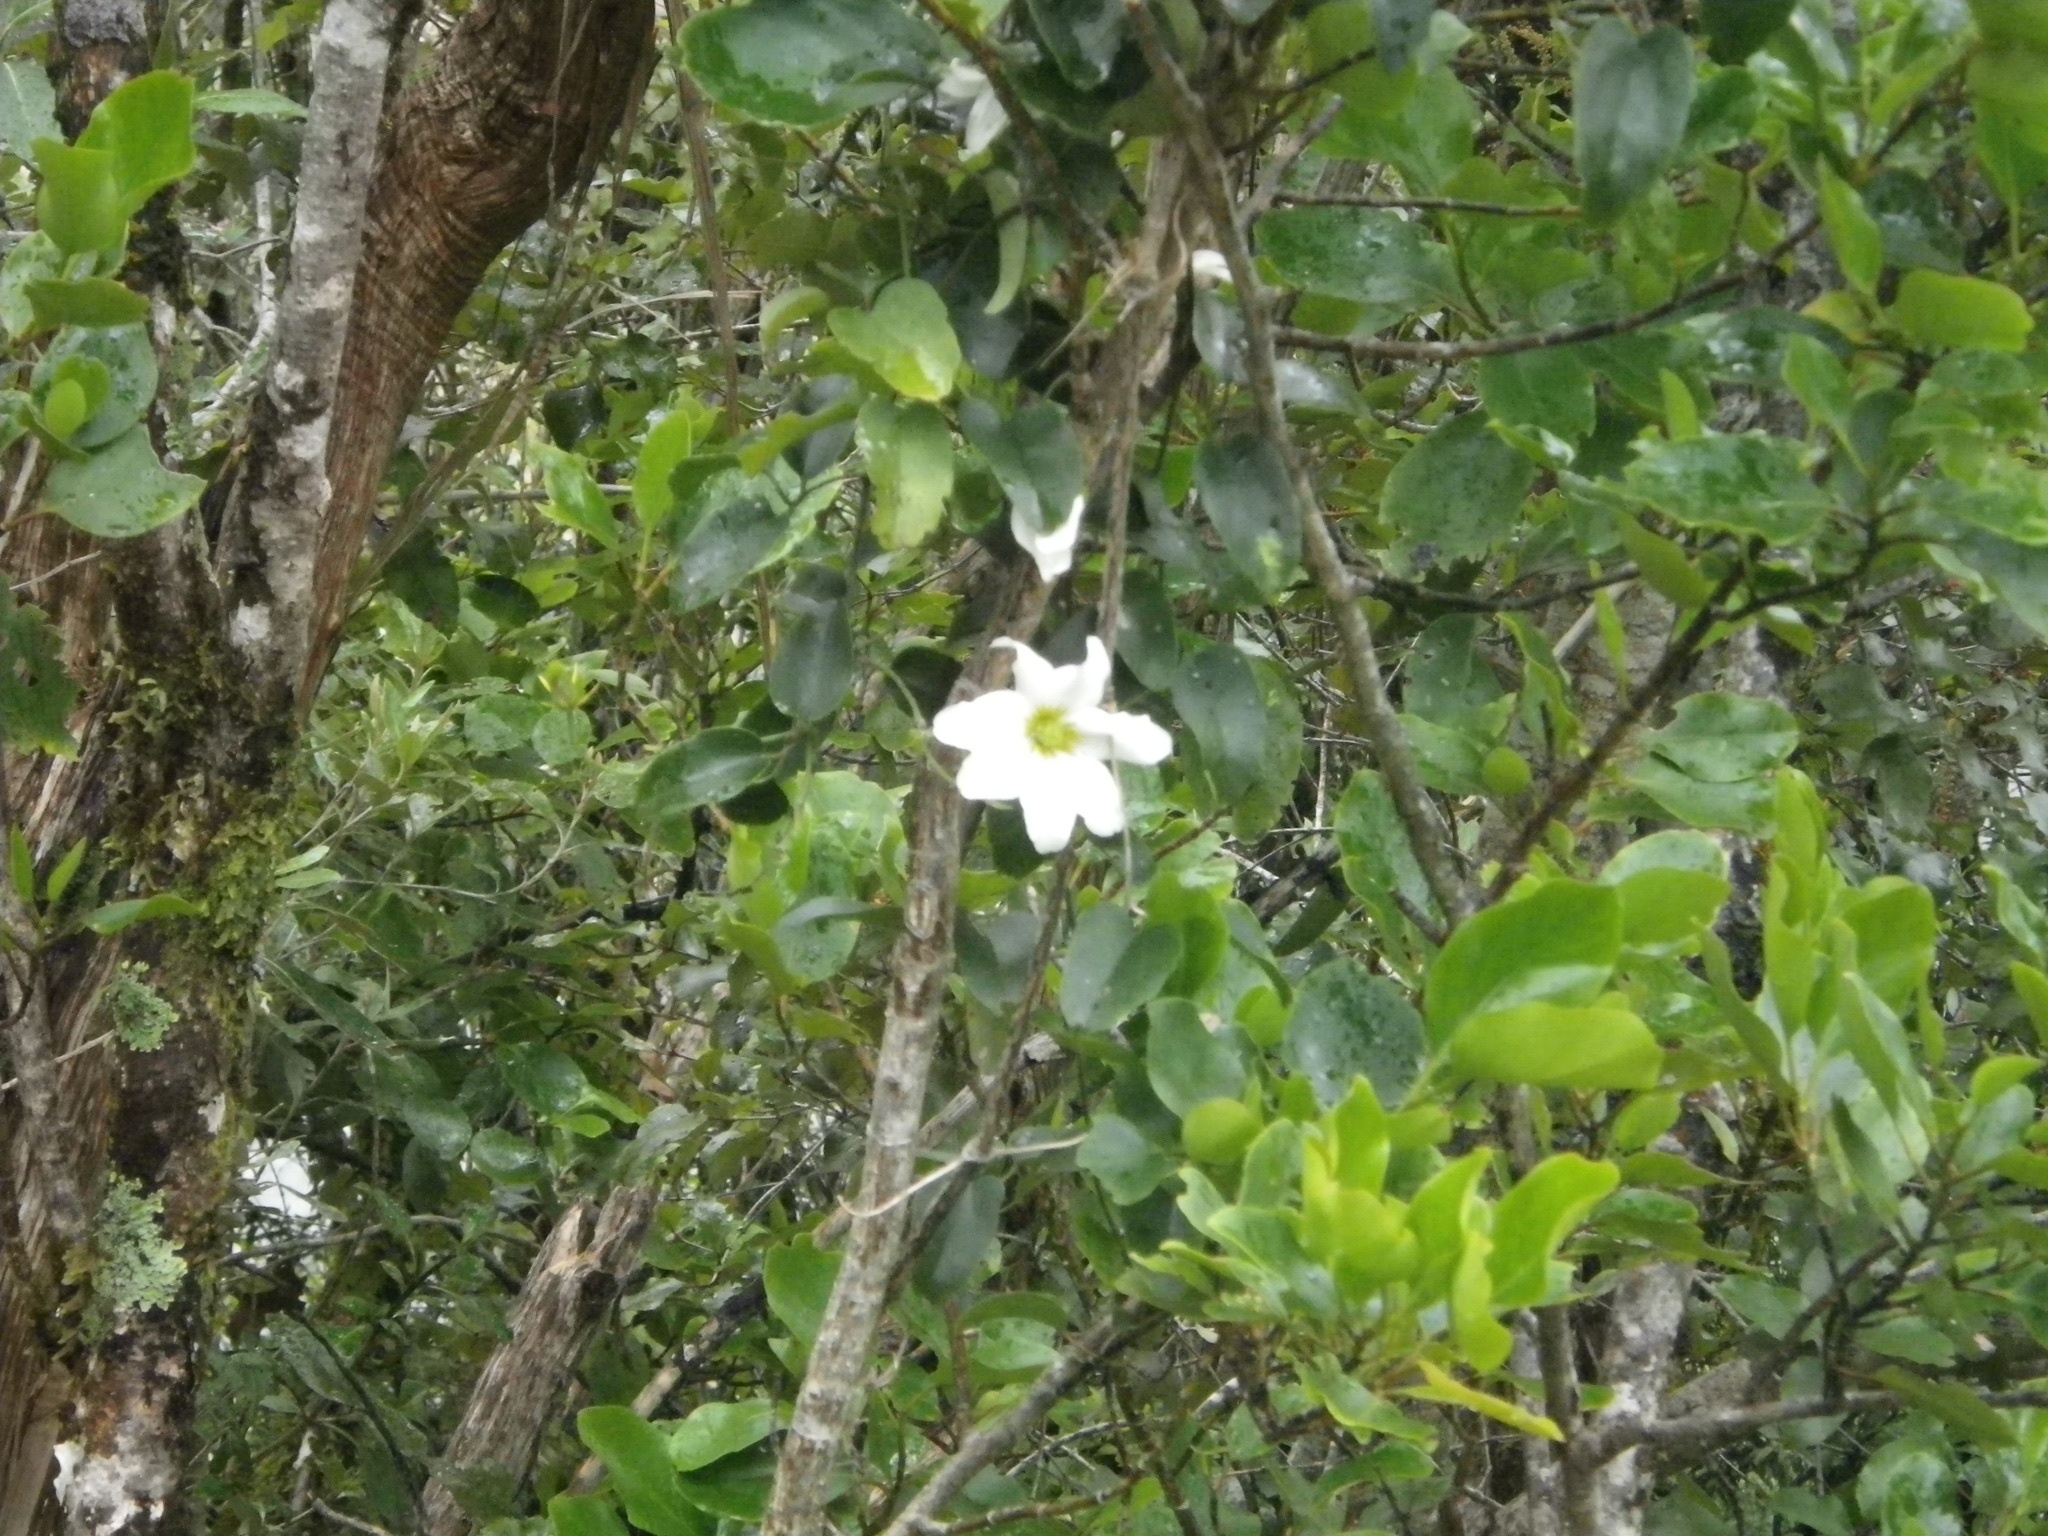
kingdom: Plantae
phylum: Tracheophyta
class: Magnoliopsida
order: Ranunculales
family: Ranunculaceae
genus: Clematis
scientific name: Clematis paniculata
